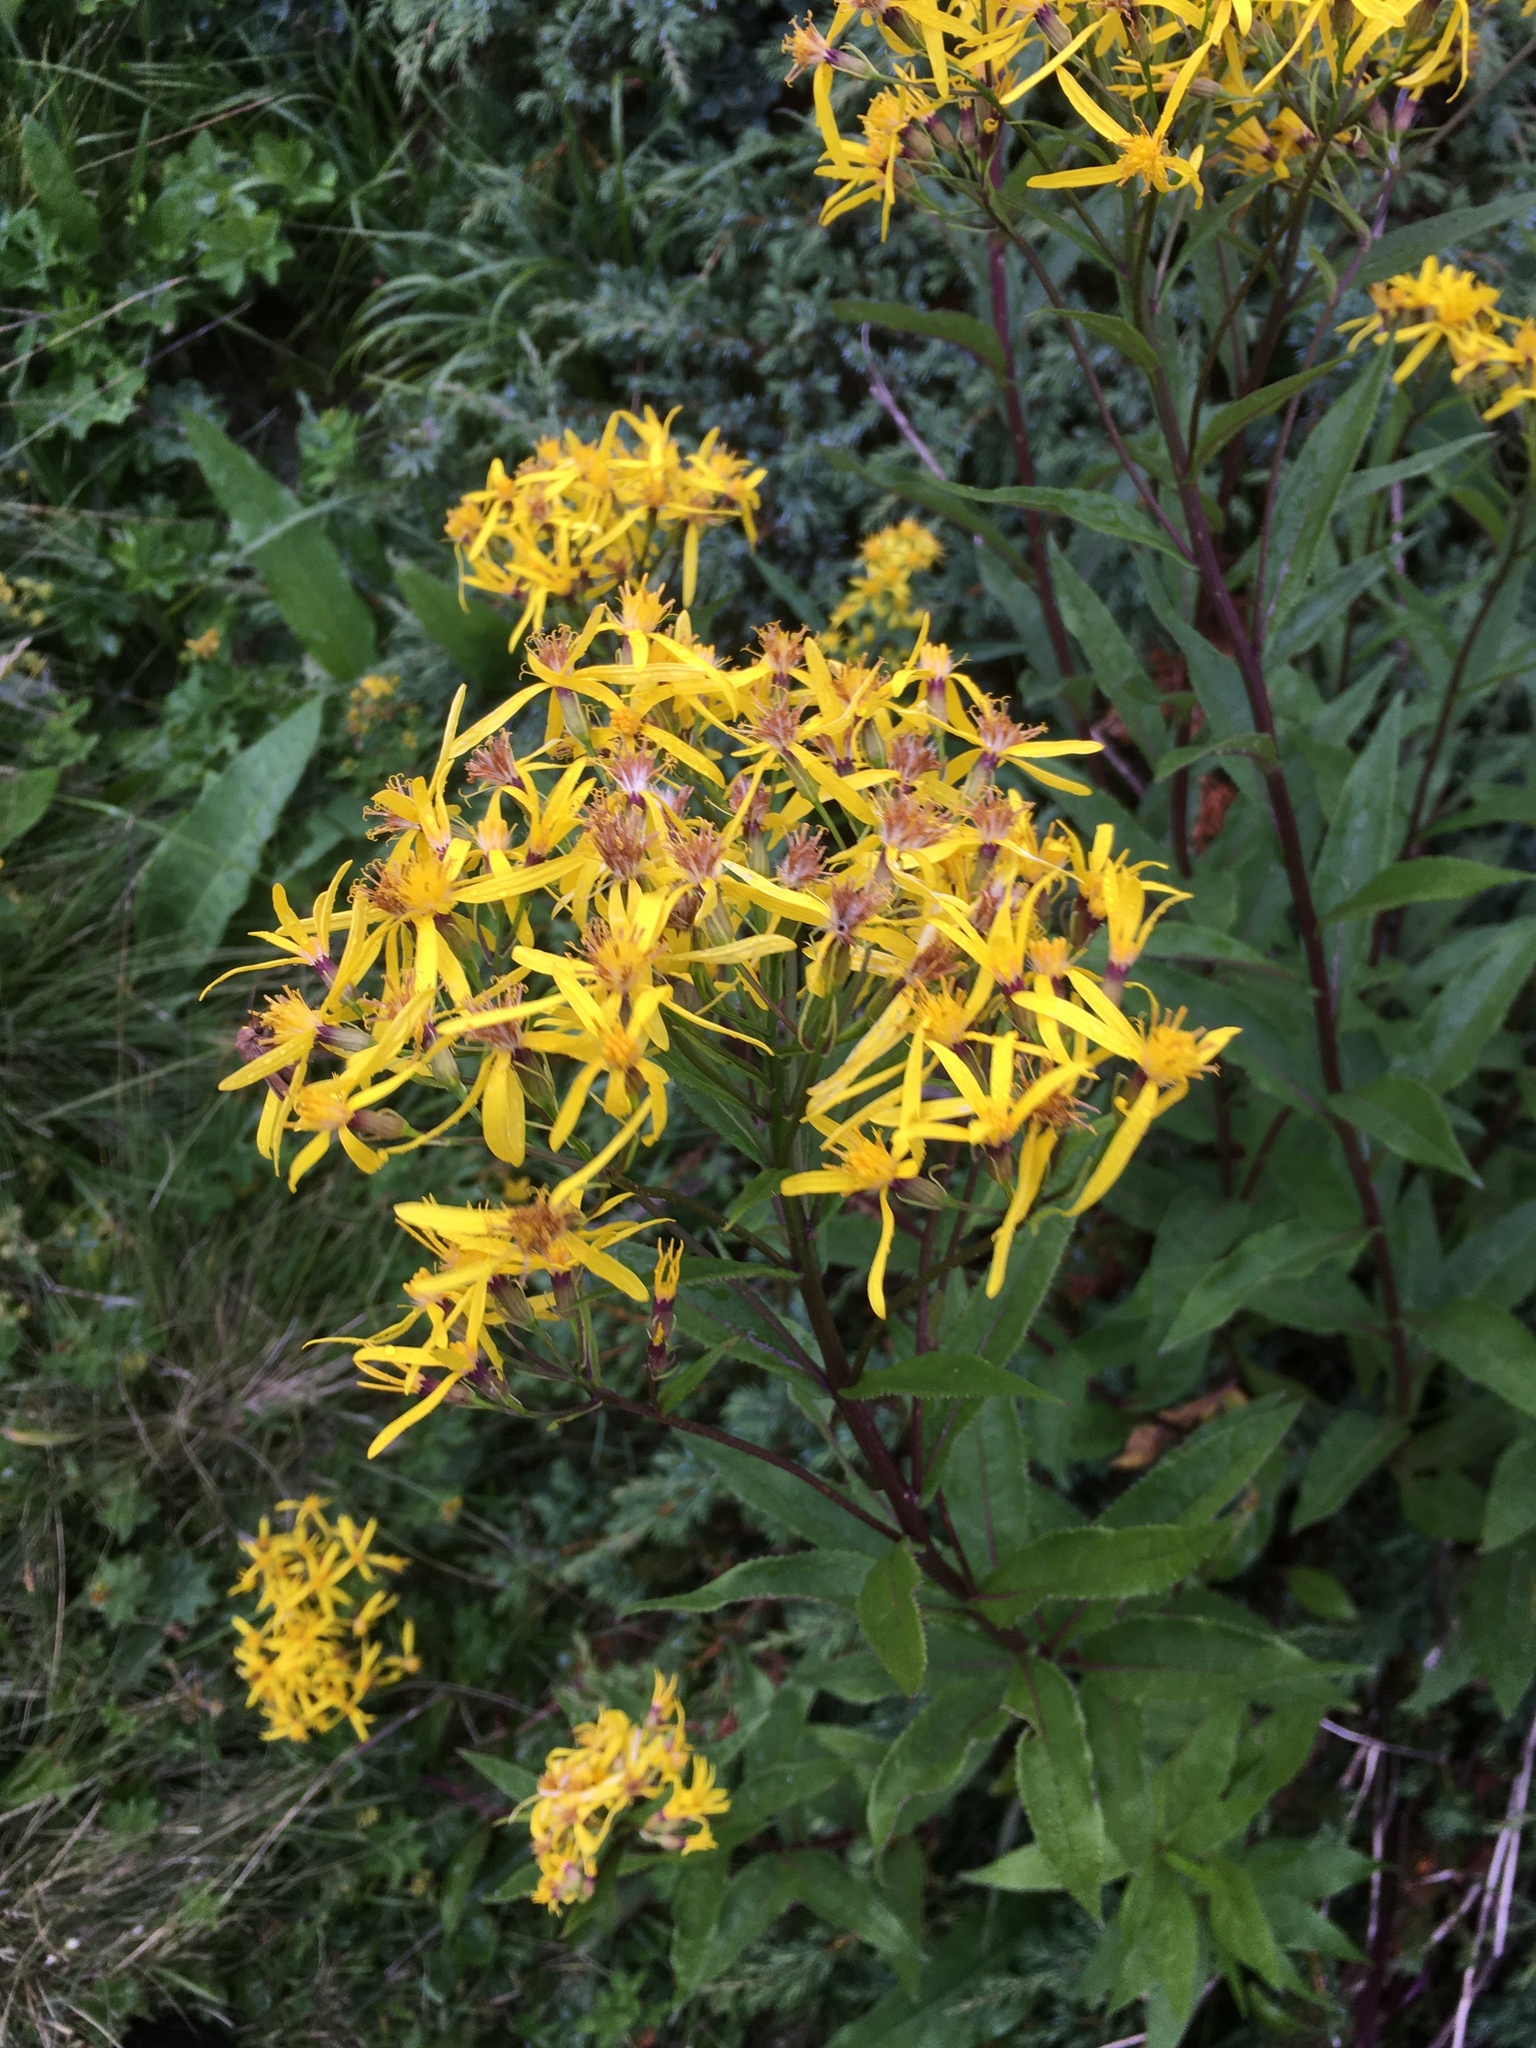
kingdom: Plantae
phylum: Tracheophyta
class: Magnoliopsida
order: Asterales
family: Asteraceae
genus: Senecio
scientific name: Senecio hercynicus
